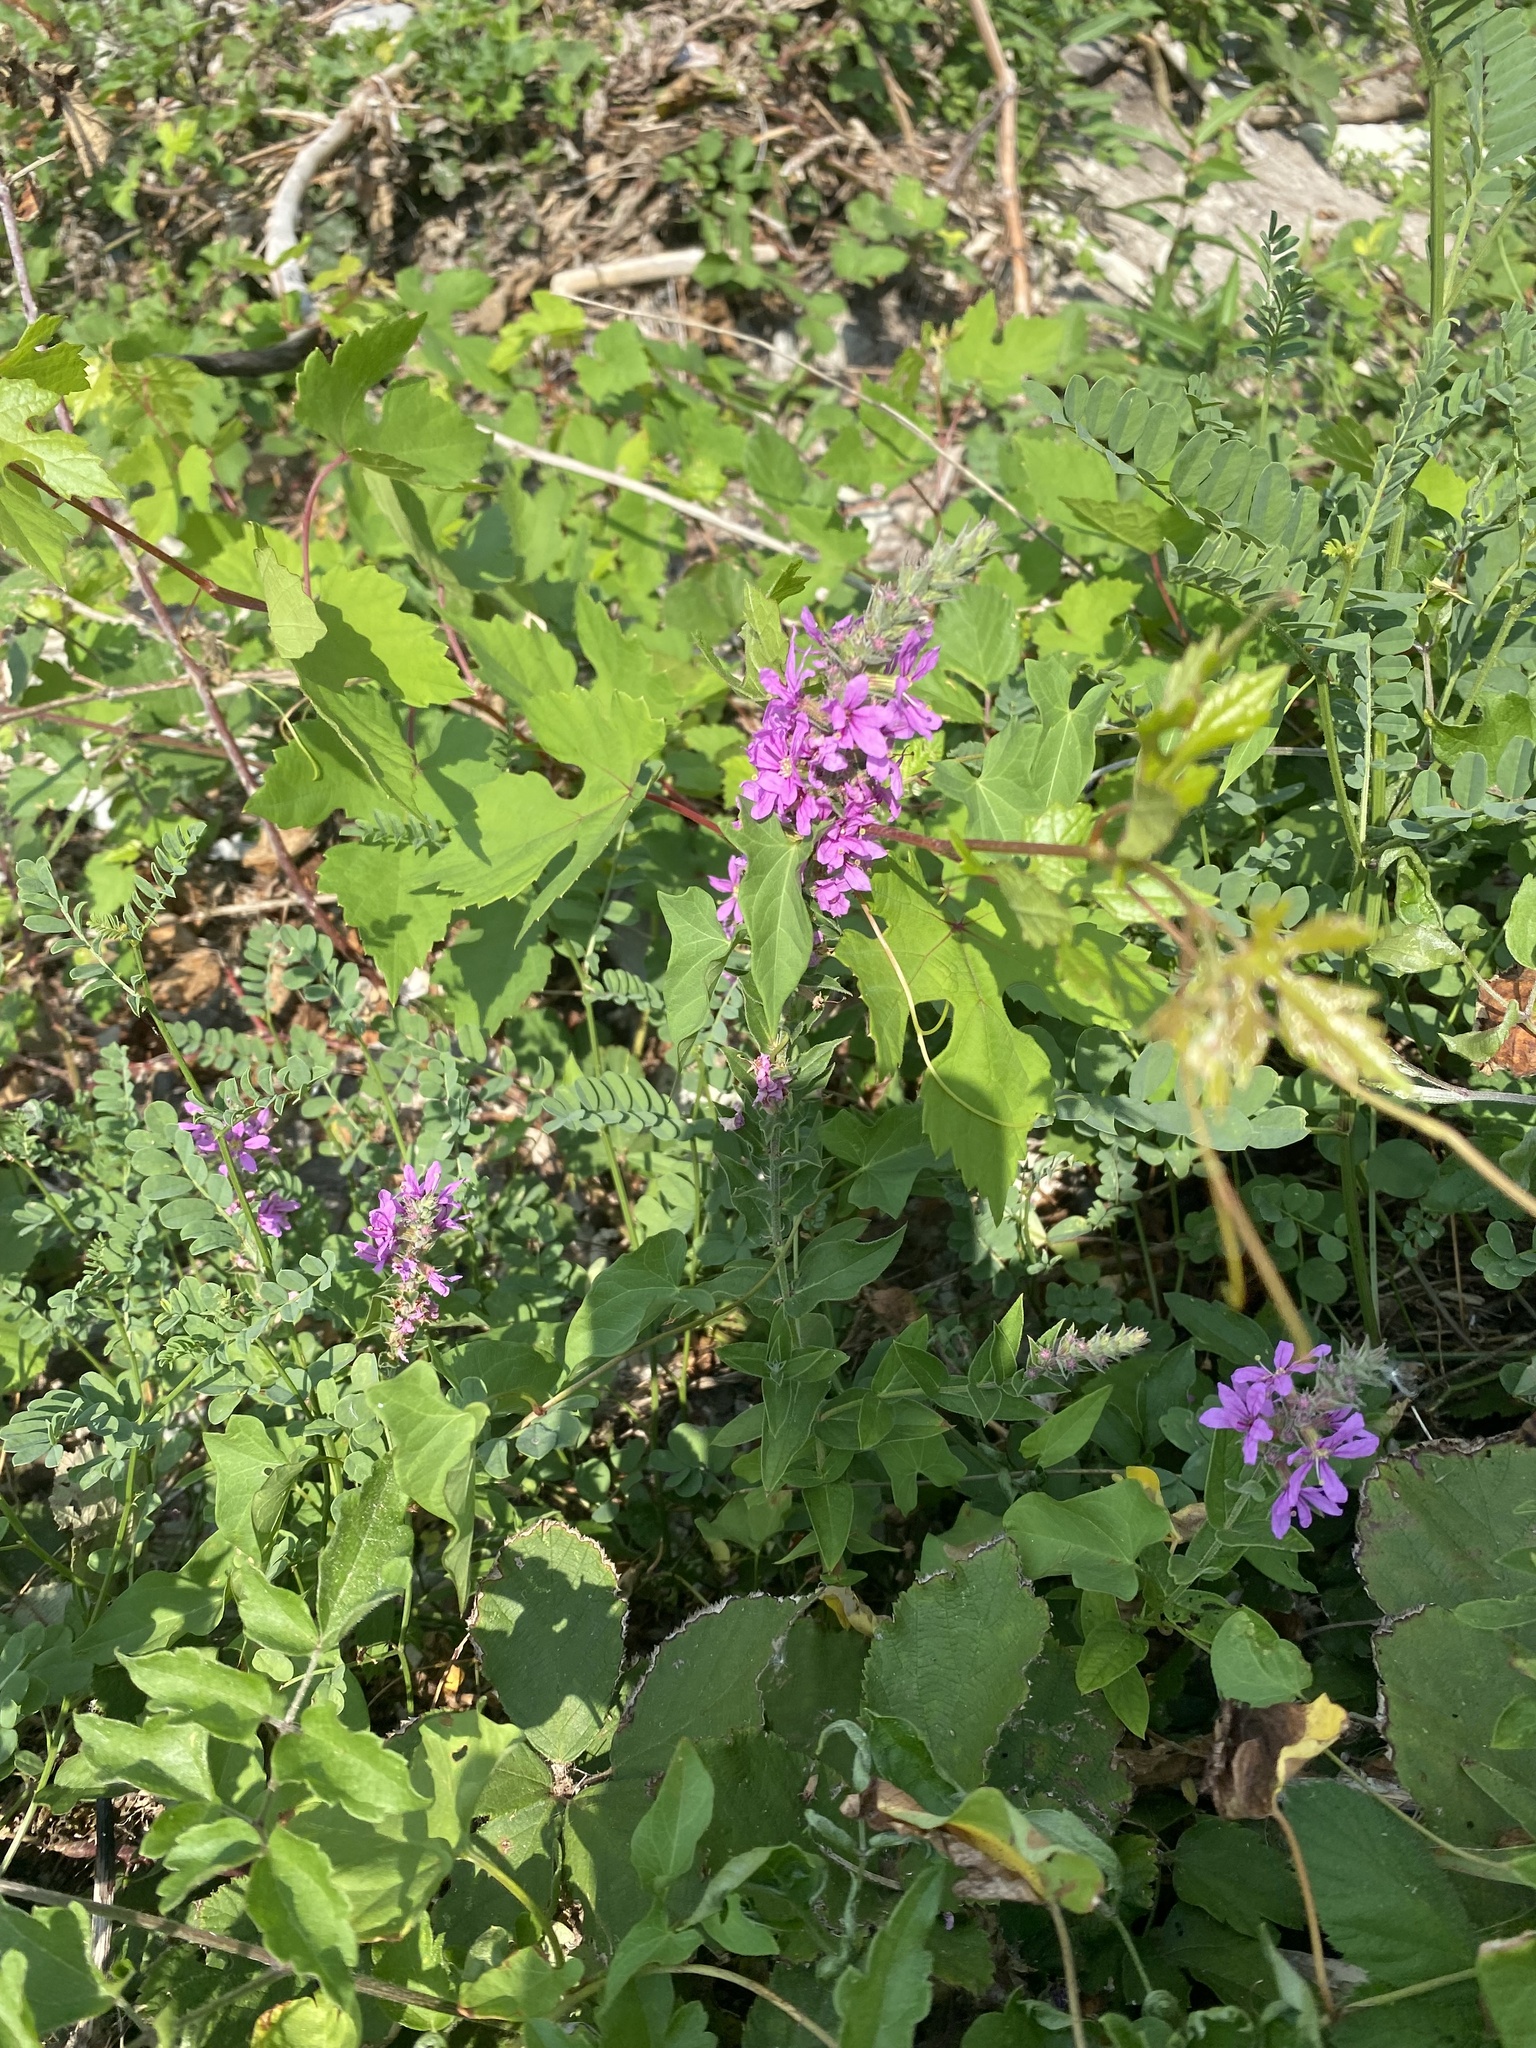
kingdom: Plantae
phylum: Tracheophyta
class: Magnoliopsida
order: Myrtales
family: Lythraceae
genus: Lythrum
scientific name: Lythrum salicaria
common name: Purple loosestrife
